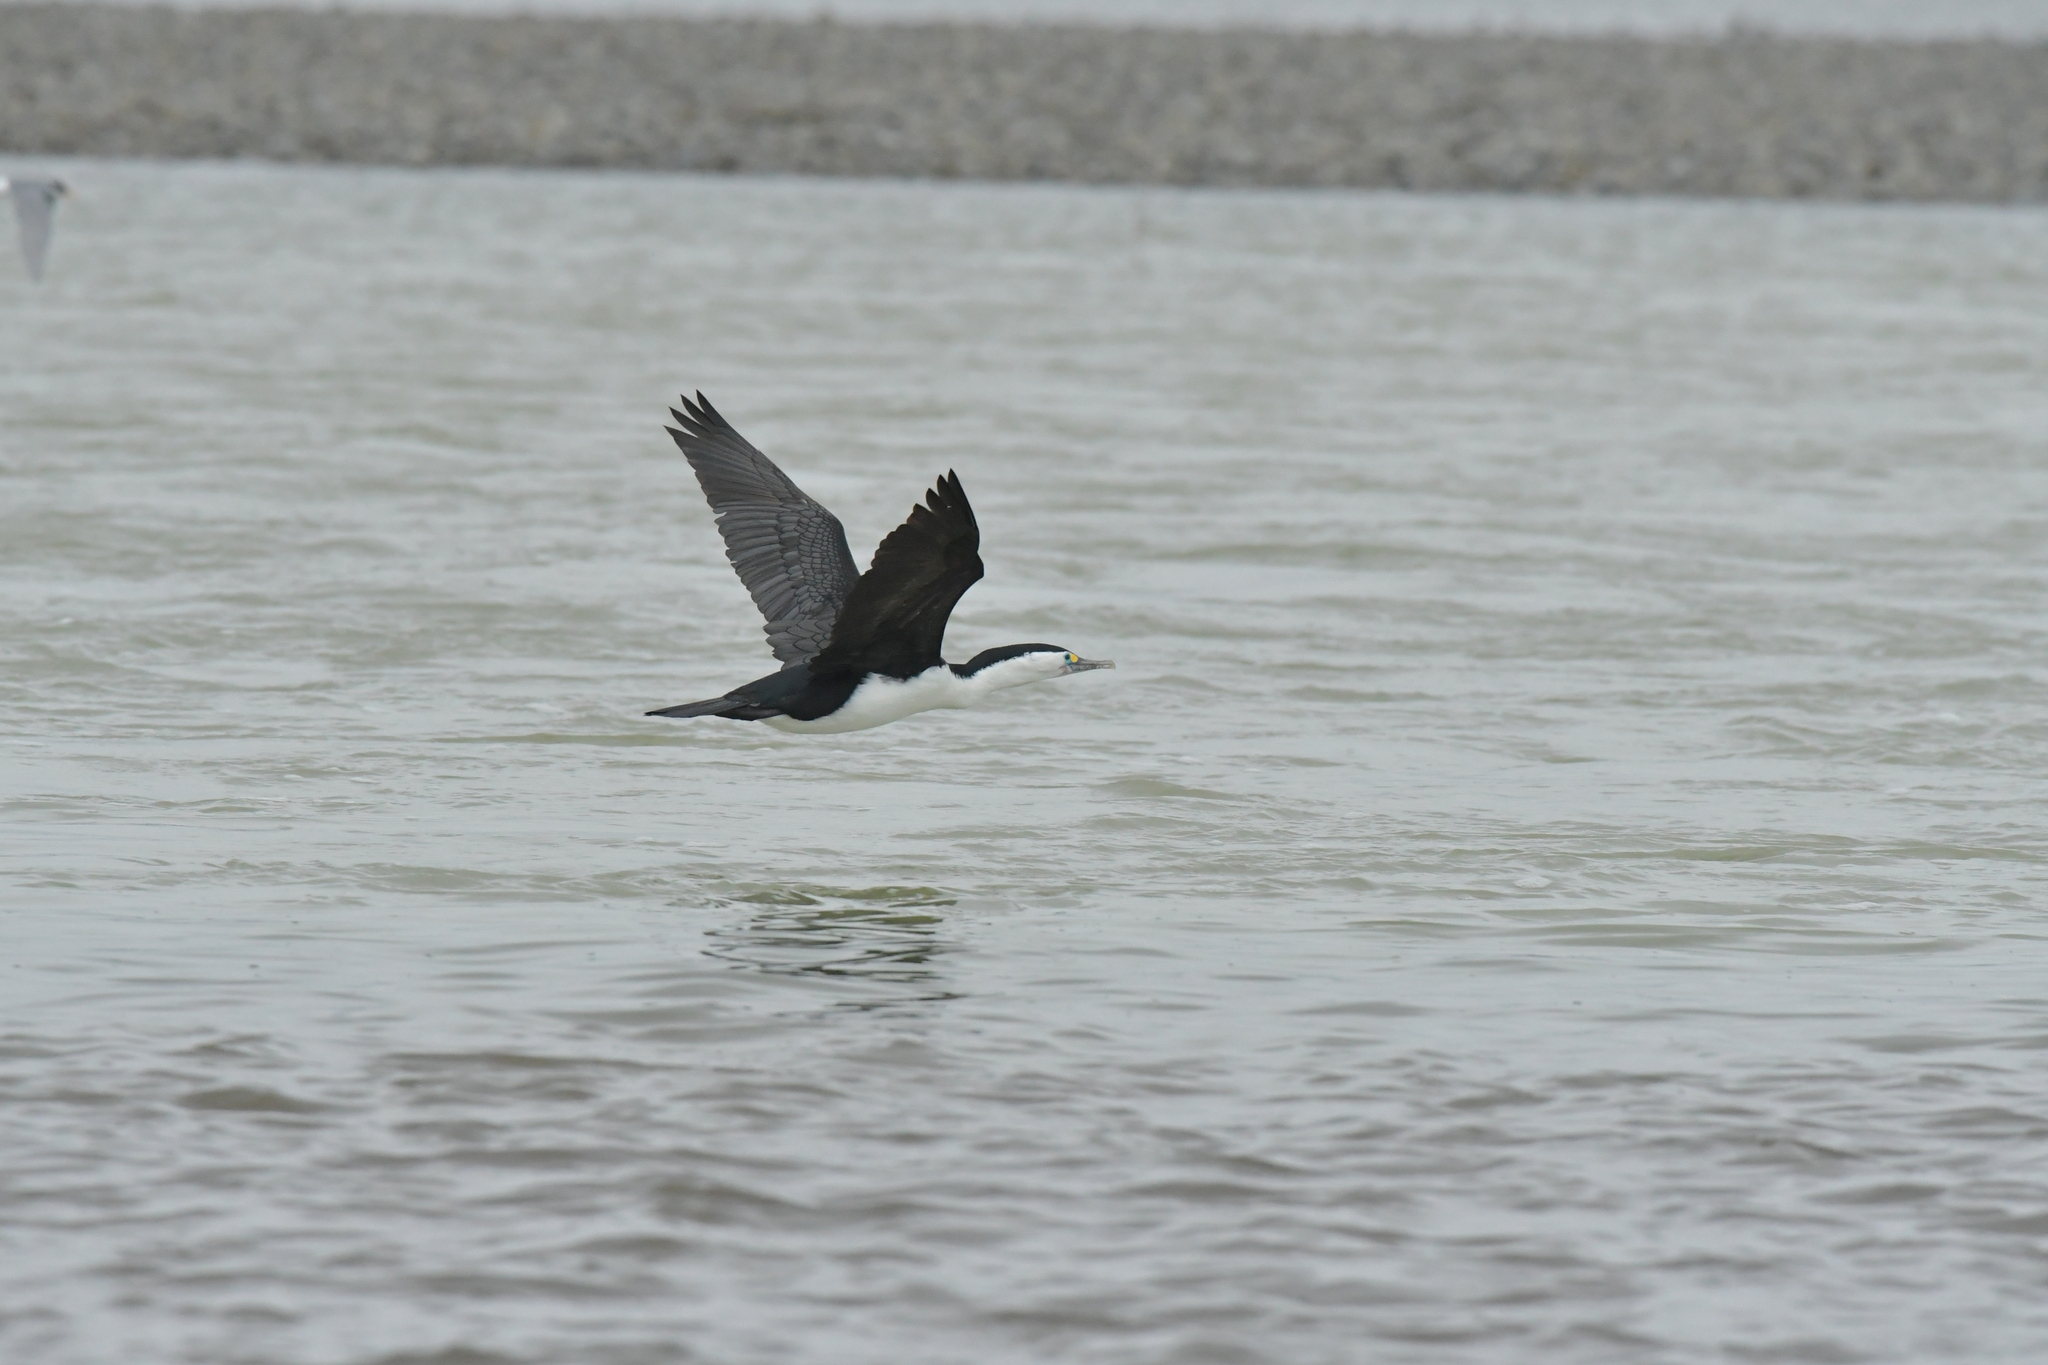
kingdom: Animalia
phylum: Chordata
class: Aves
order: Suliformes
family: Phalacrocoracidae
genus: Phalacrocorax
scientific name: Phalacrocorax varius
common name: Pied cormorant
